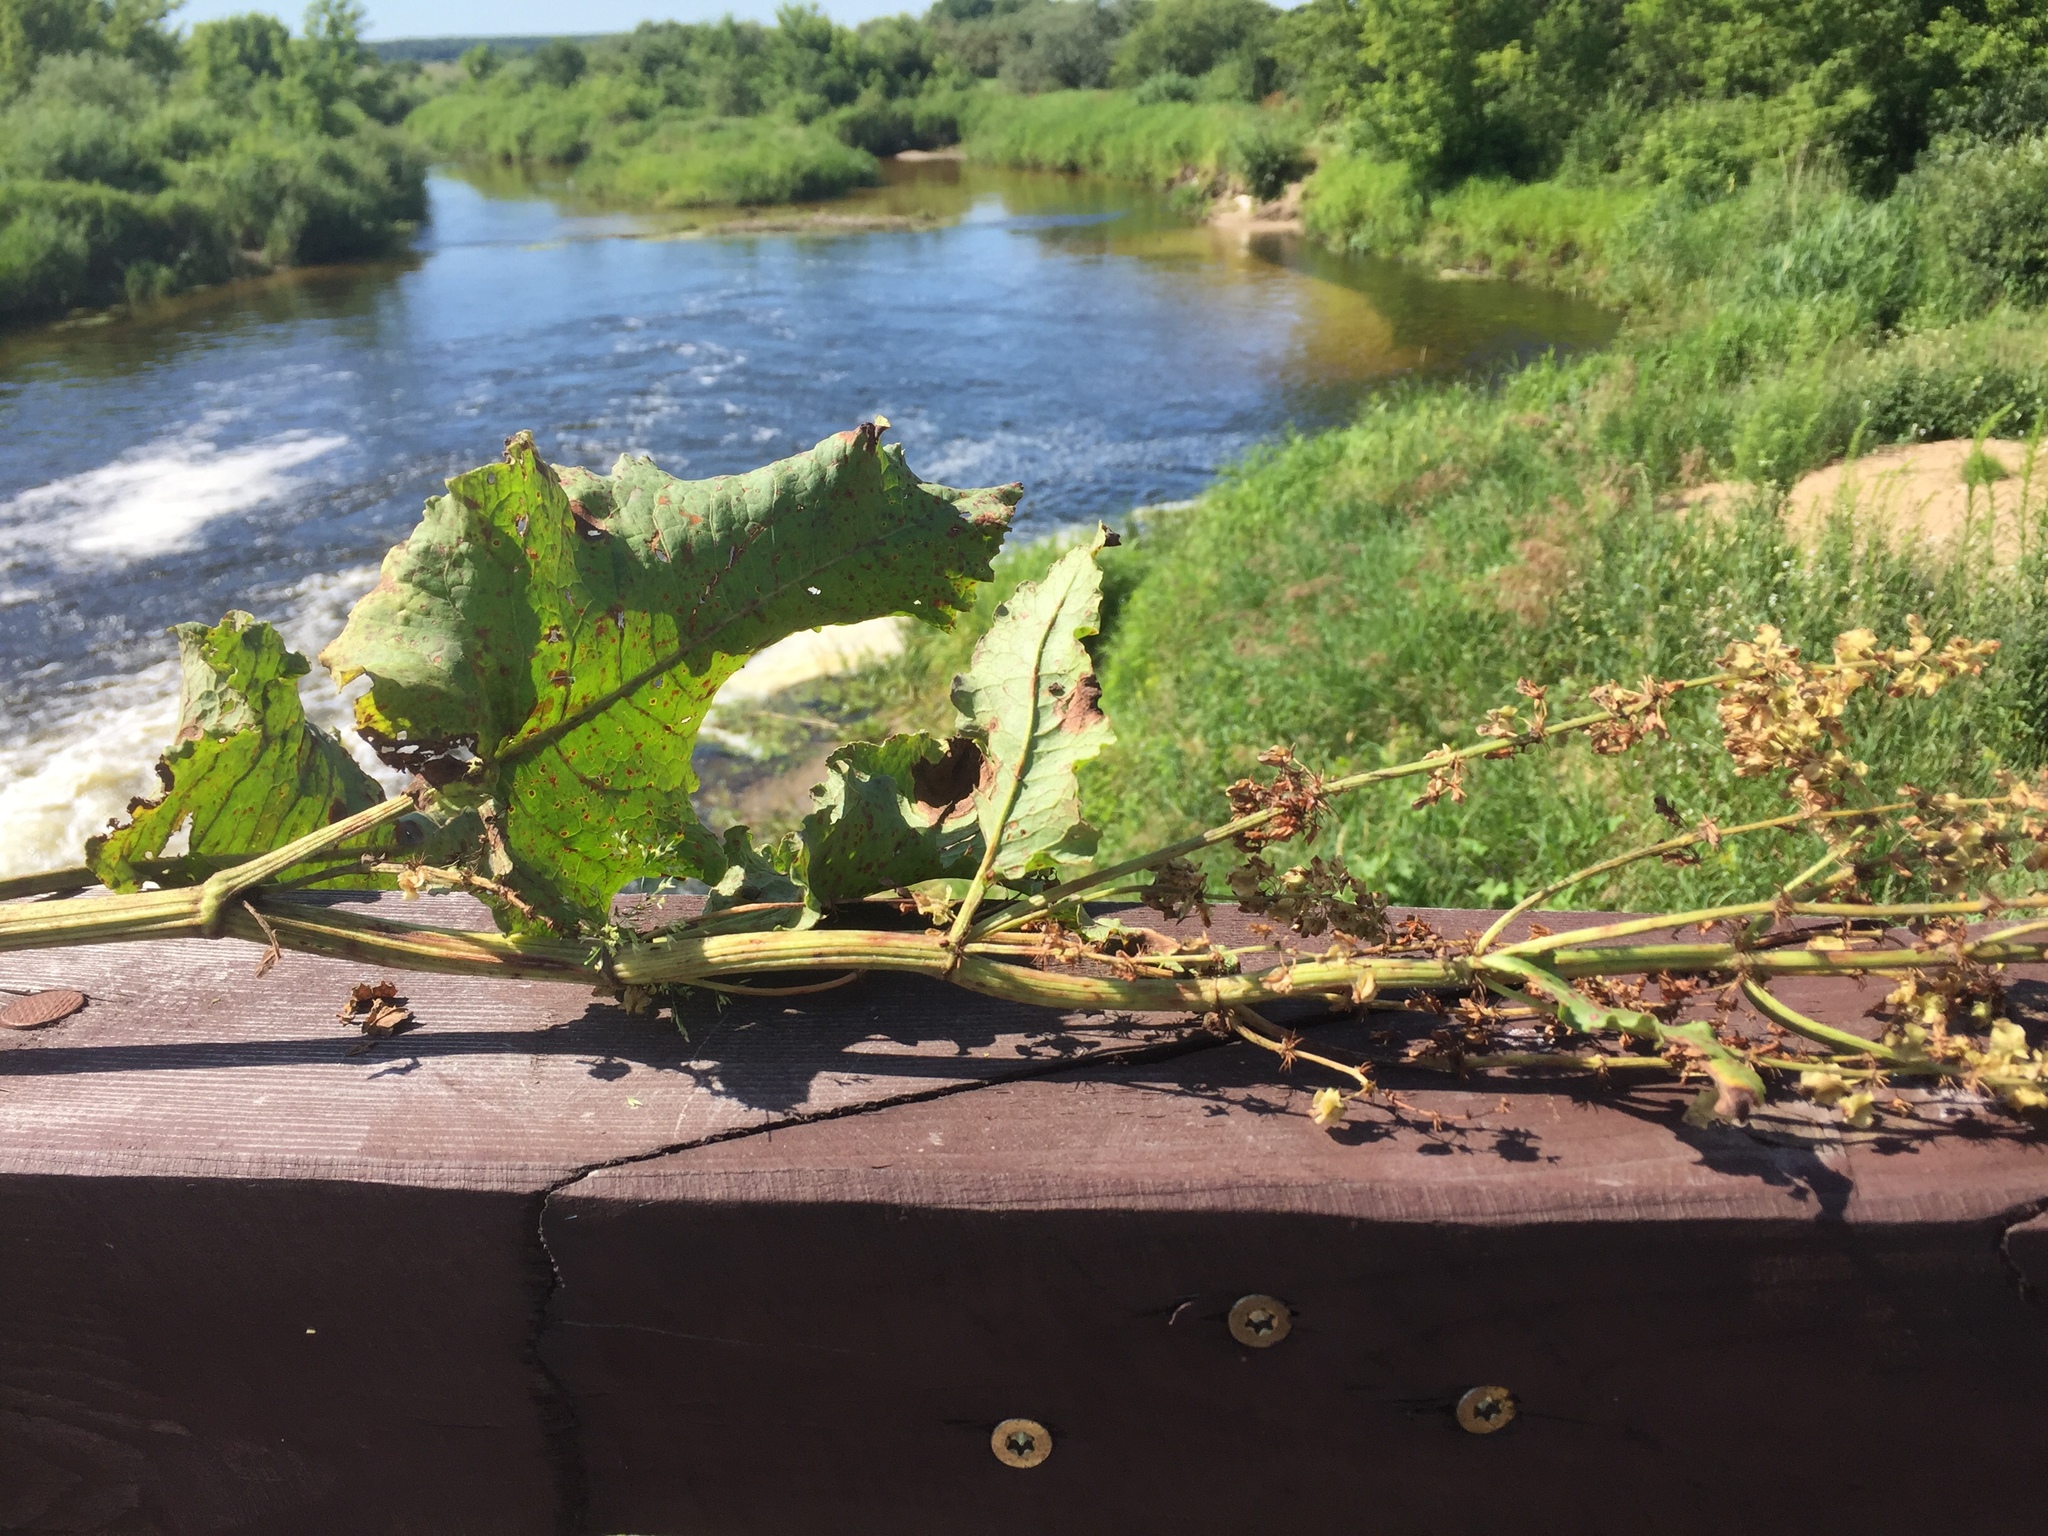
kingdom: Plantae
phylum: Tracheophyta
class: Magnoliopsida
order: Caryophyllales
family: Polygonaceae
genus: Rumex
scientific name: Rumex confertus
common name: Russian dock
